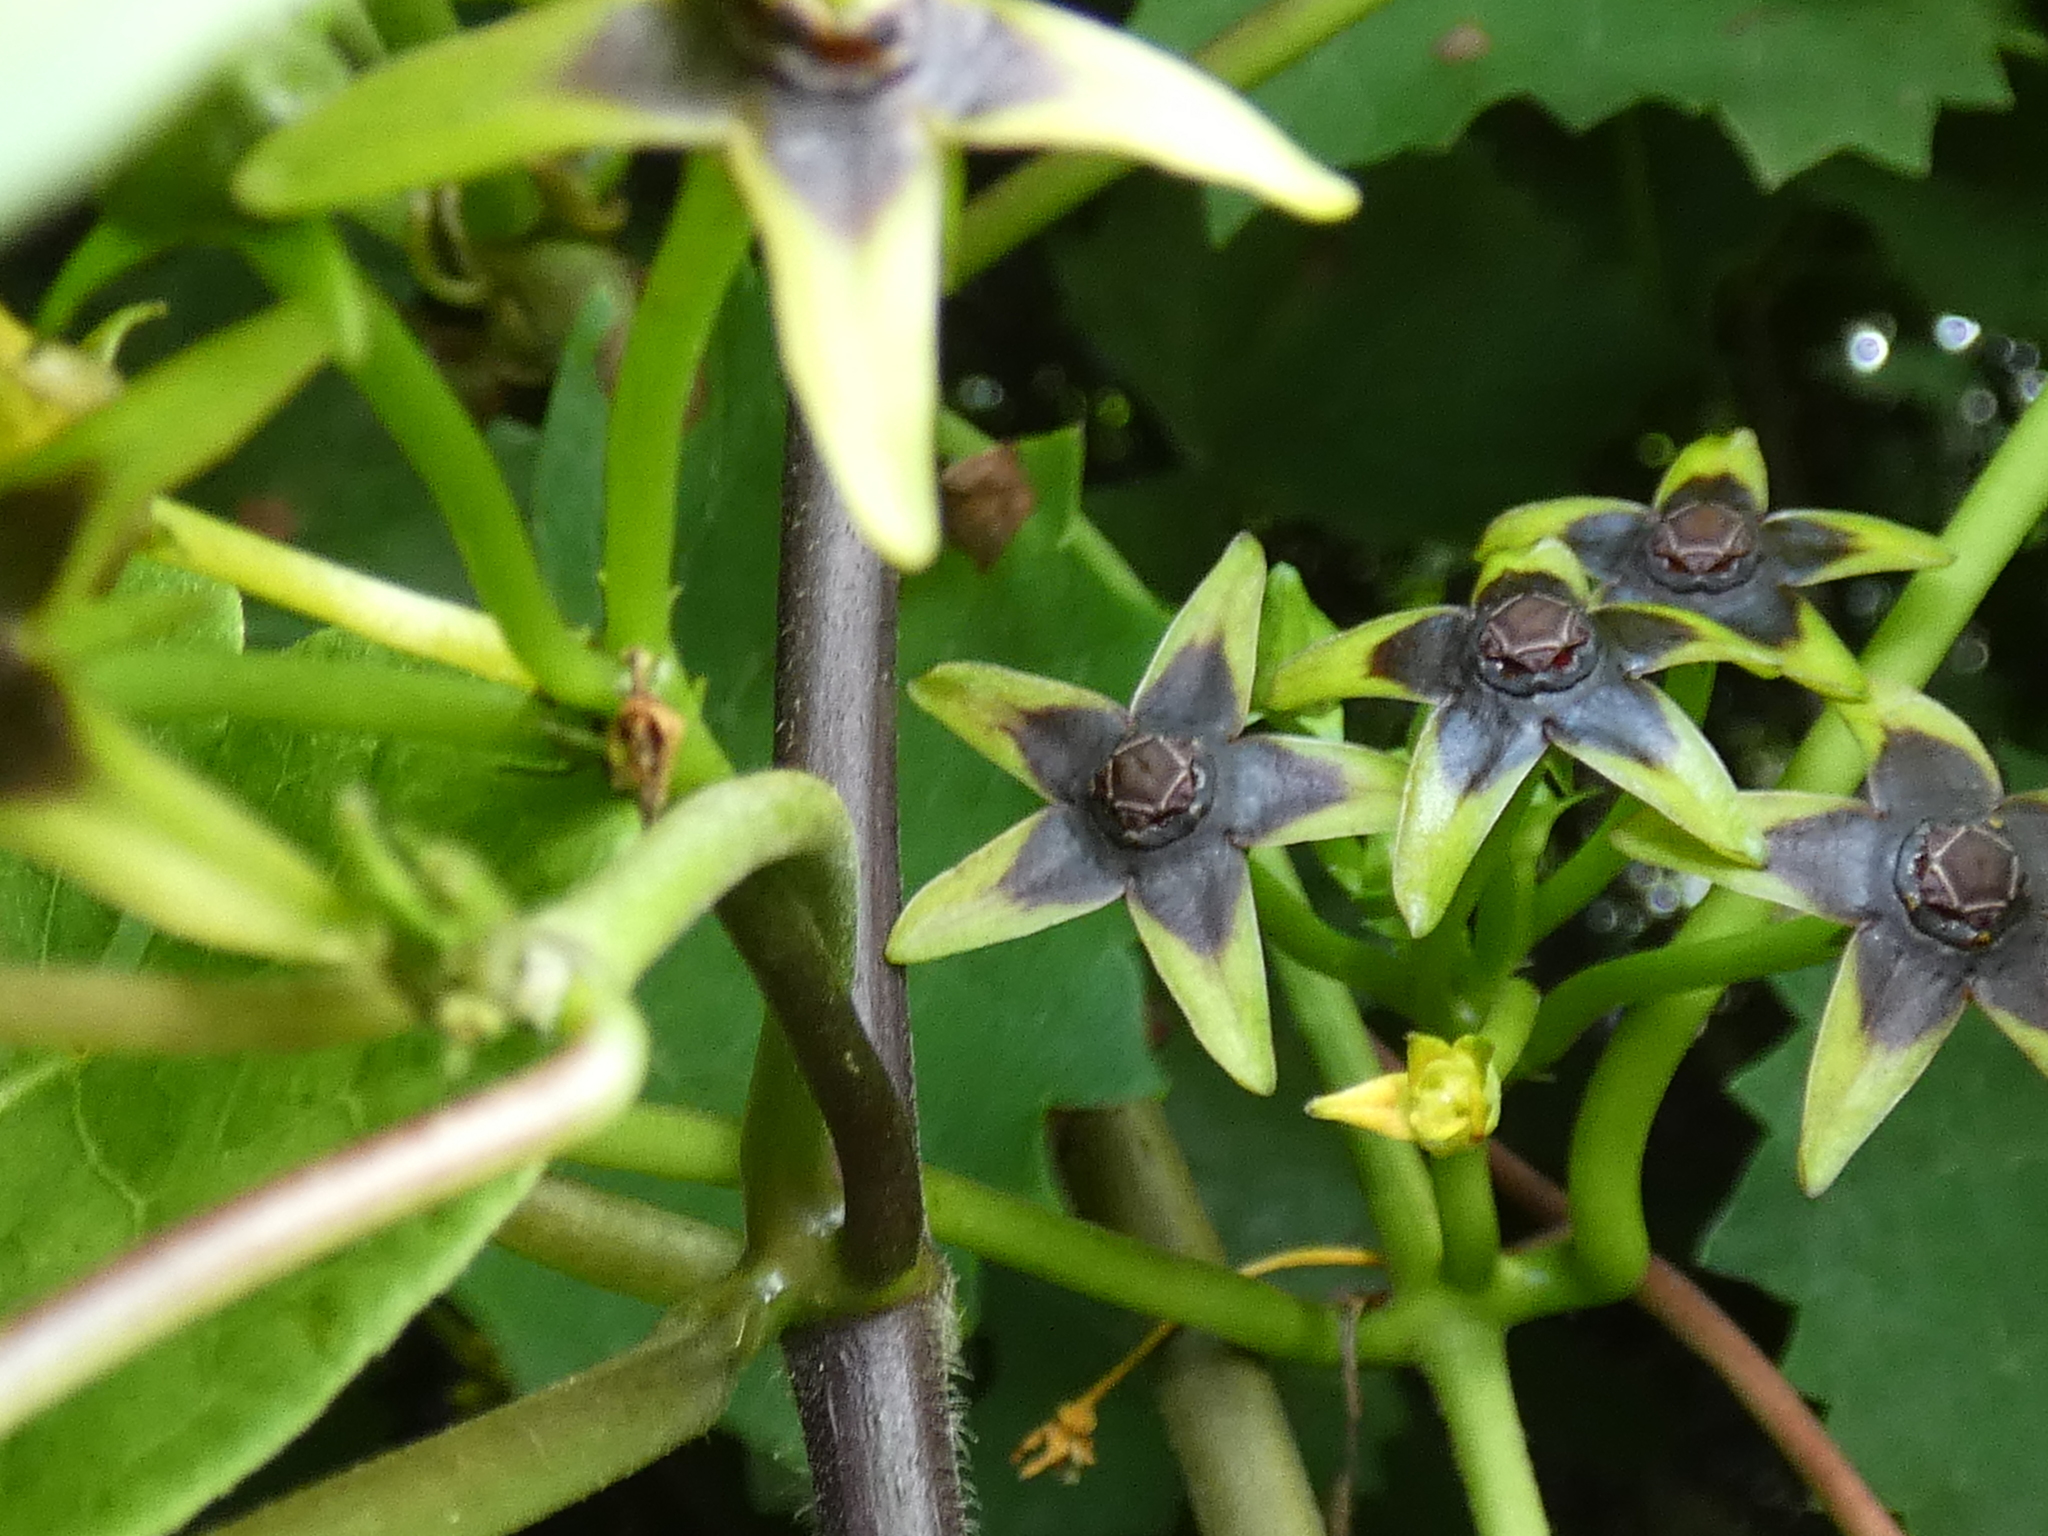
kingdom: Plantae
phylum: Tracheophyta
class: Magnoliopsida
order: Gentianales
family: Apocynaceae
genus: Gonolobus
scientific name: Gonolobus suberosus
